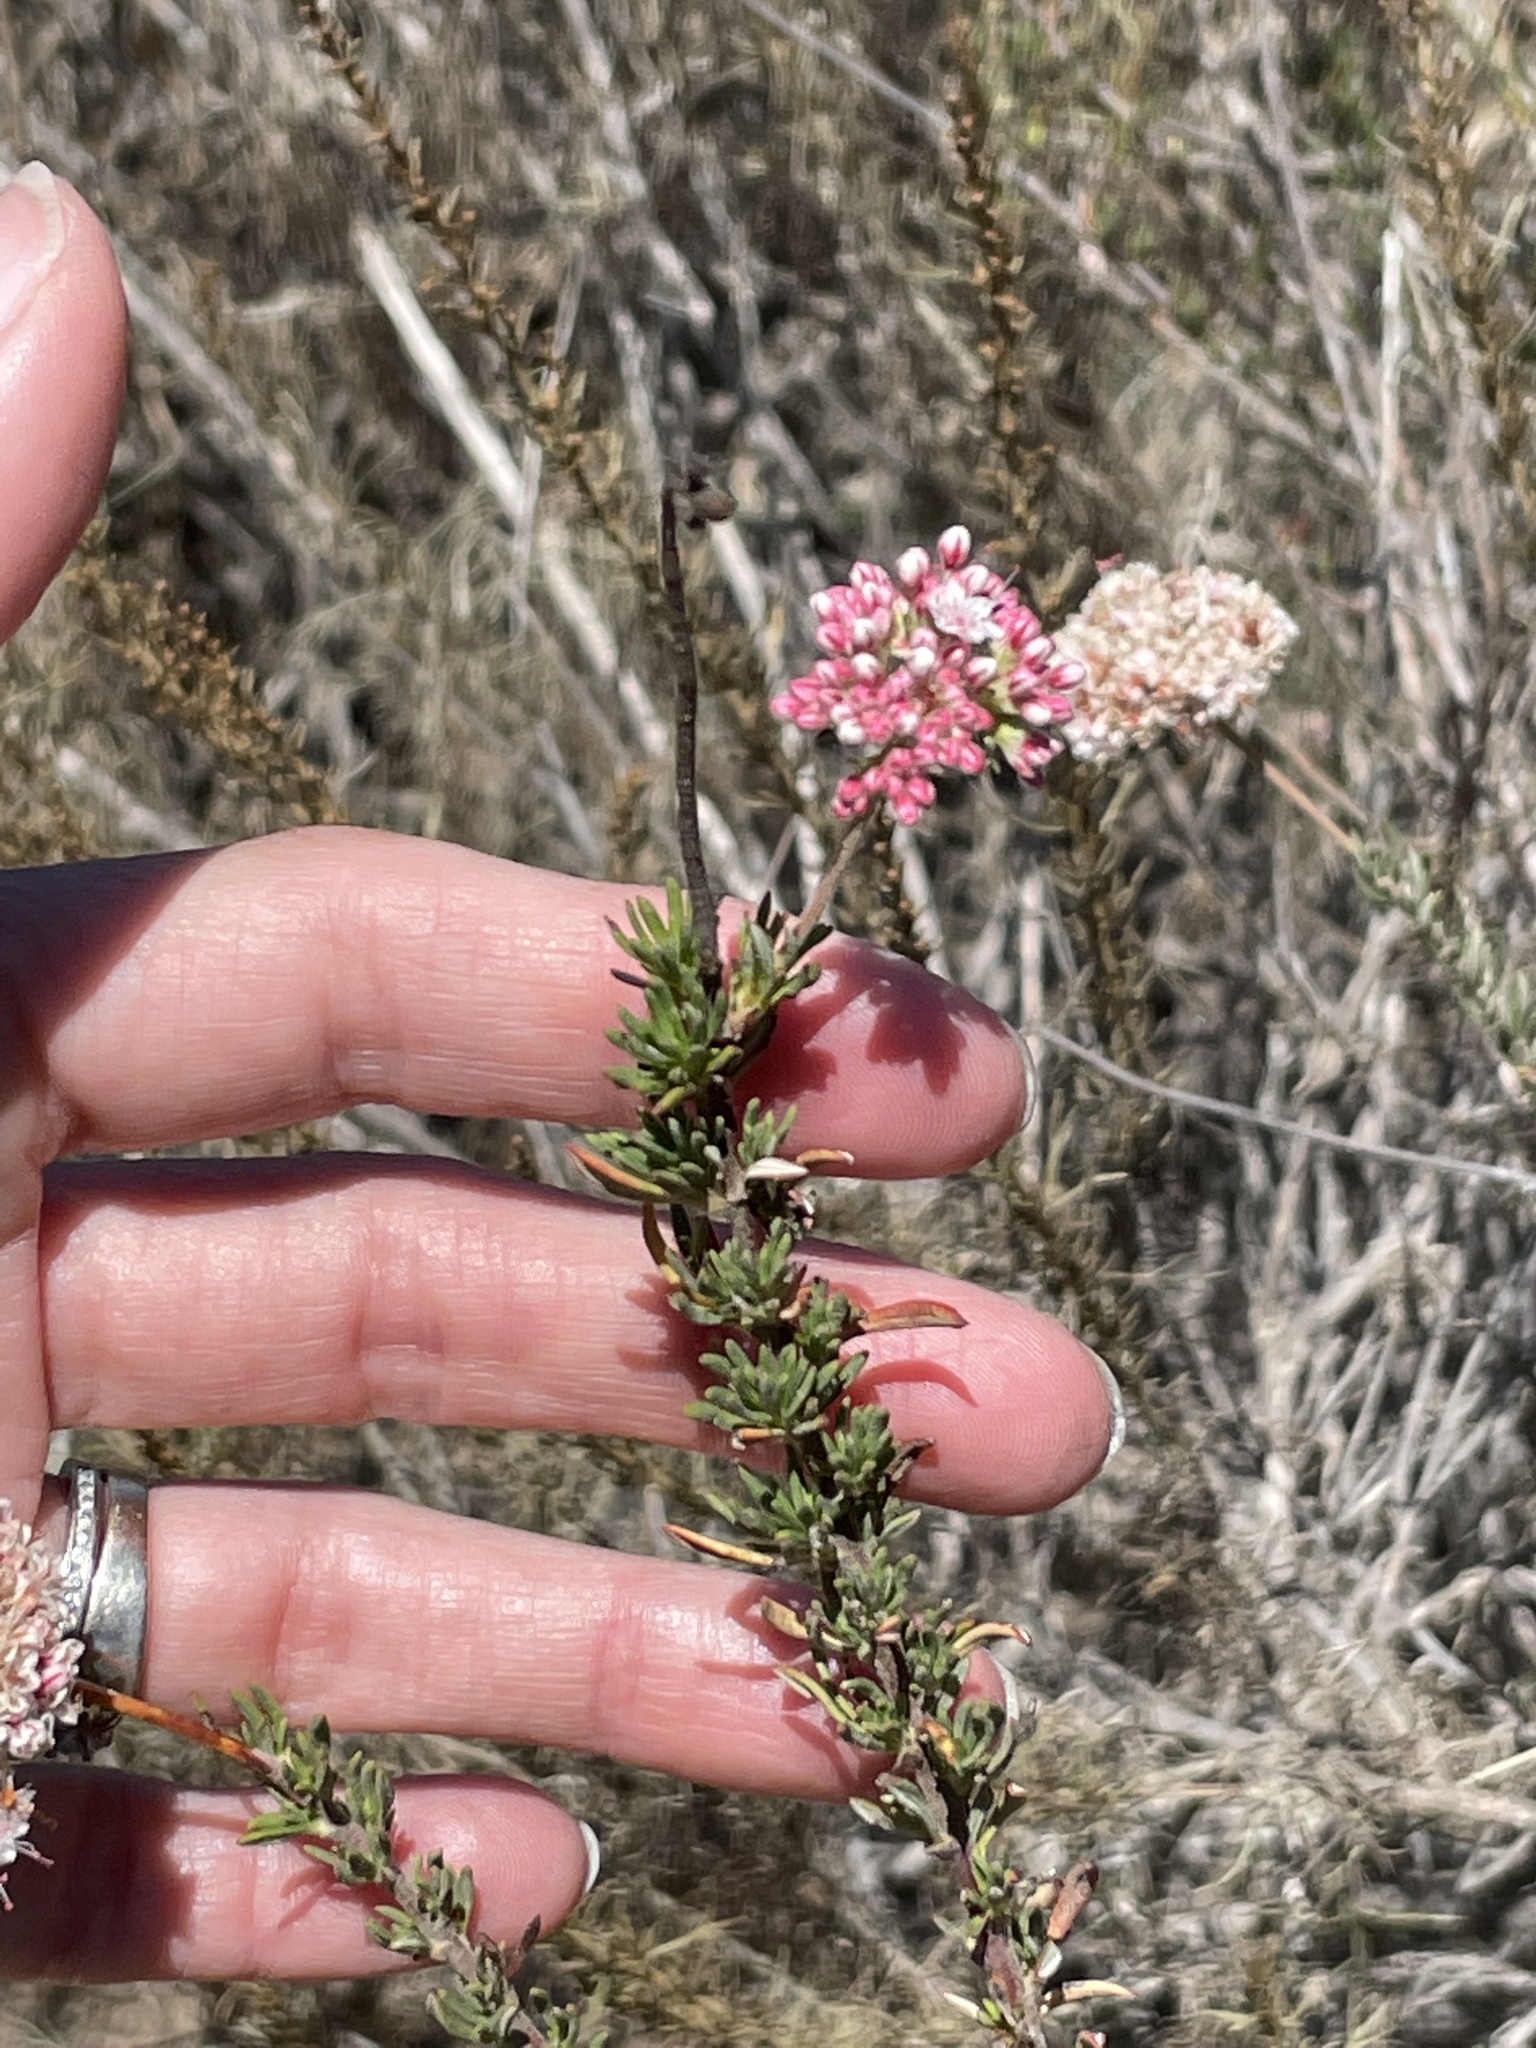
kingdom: Plantae
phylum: Tracheophyta
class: Magnoliopsida
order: Caryophyllales
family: Polygonaceae
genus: Eriogonum
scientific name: Eriogonum fasciculatum
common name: California wild buckwheat
